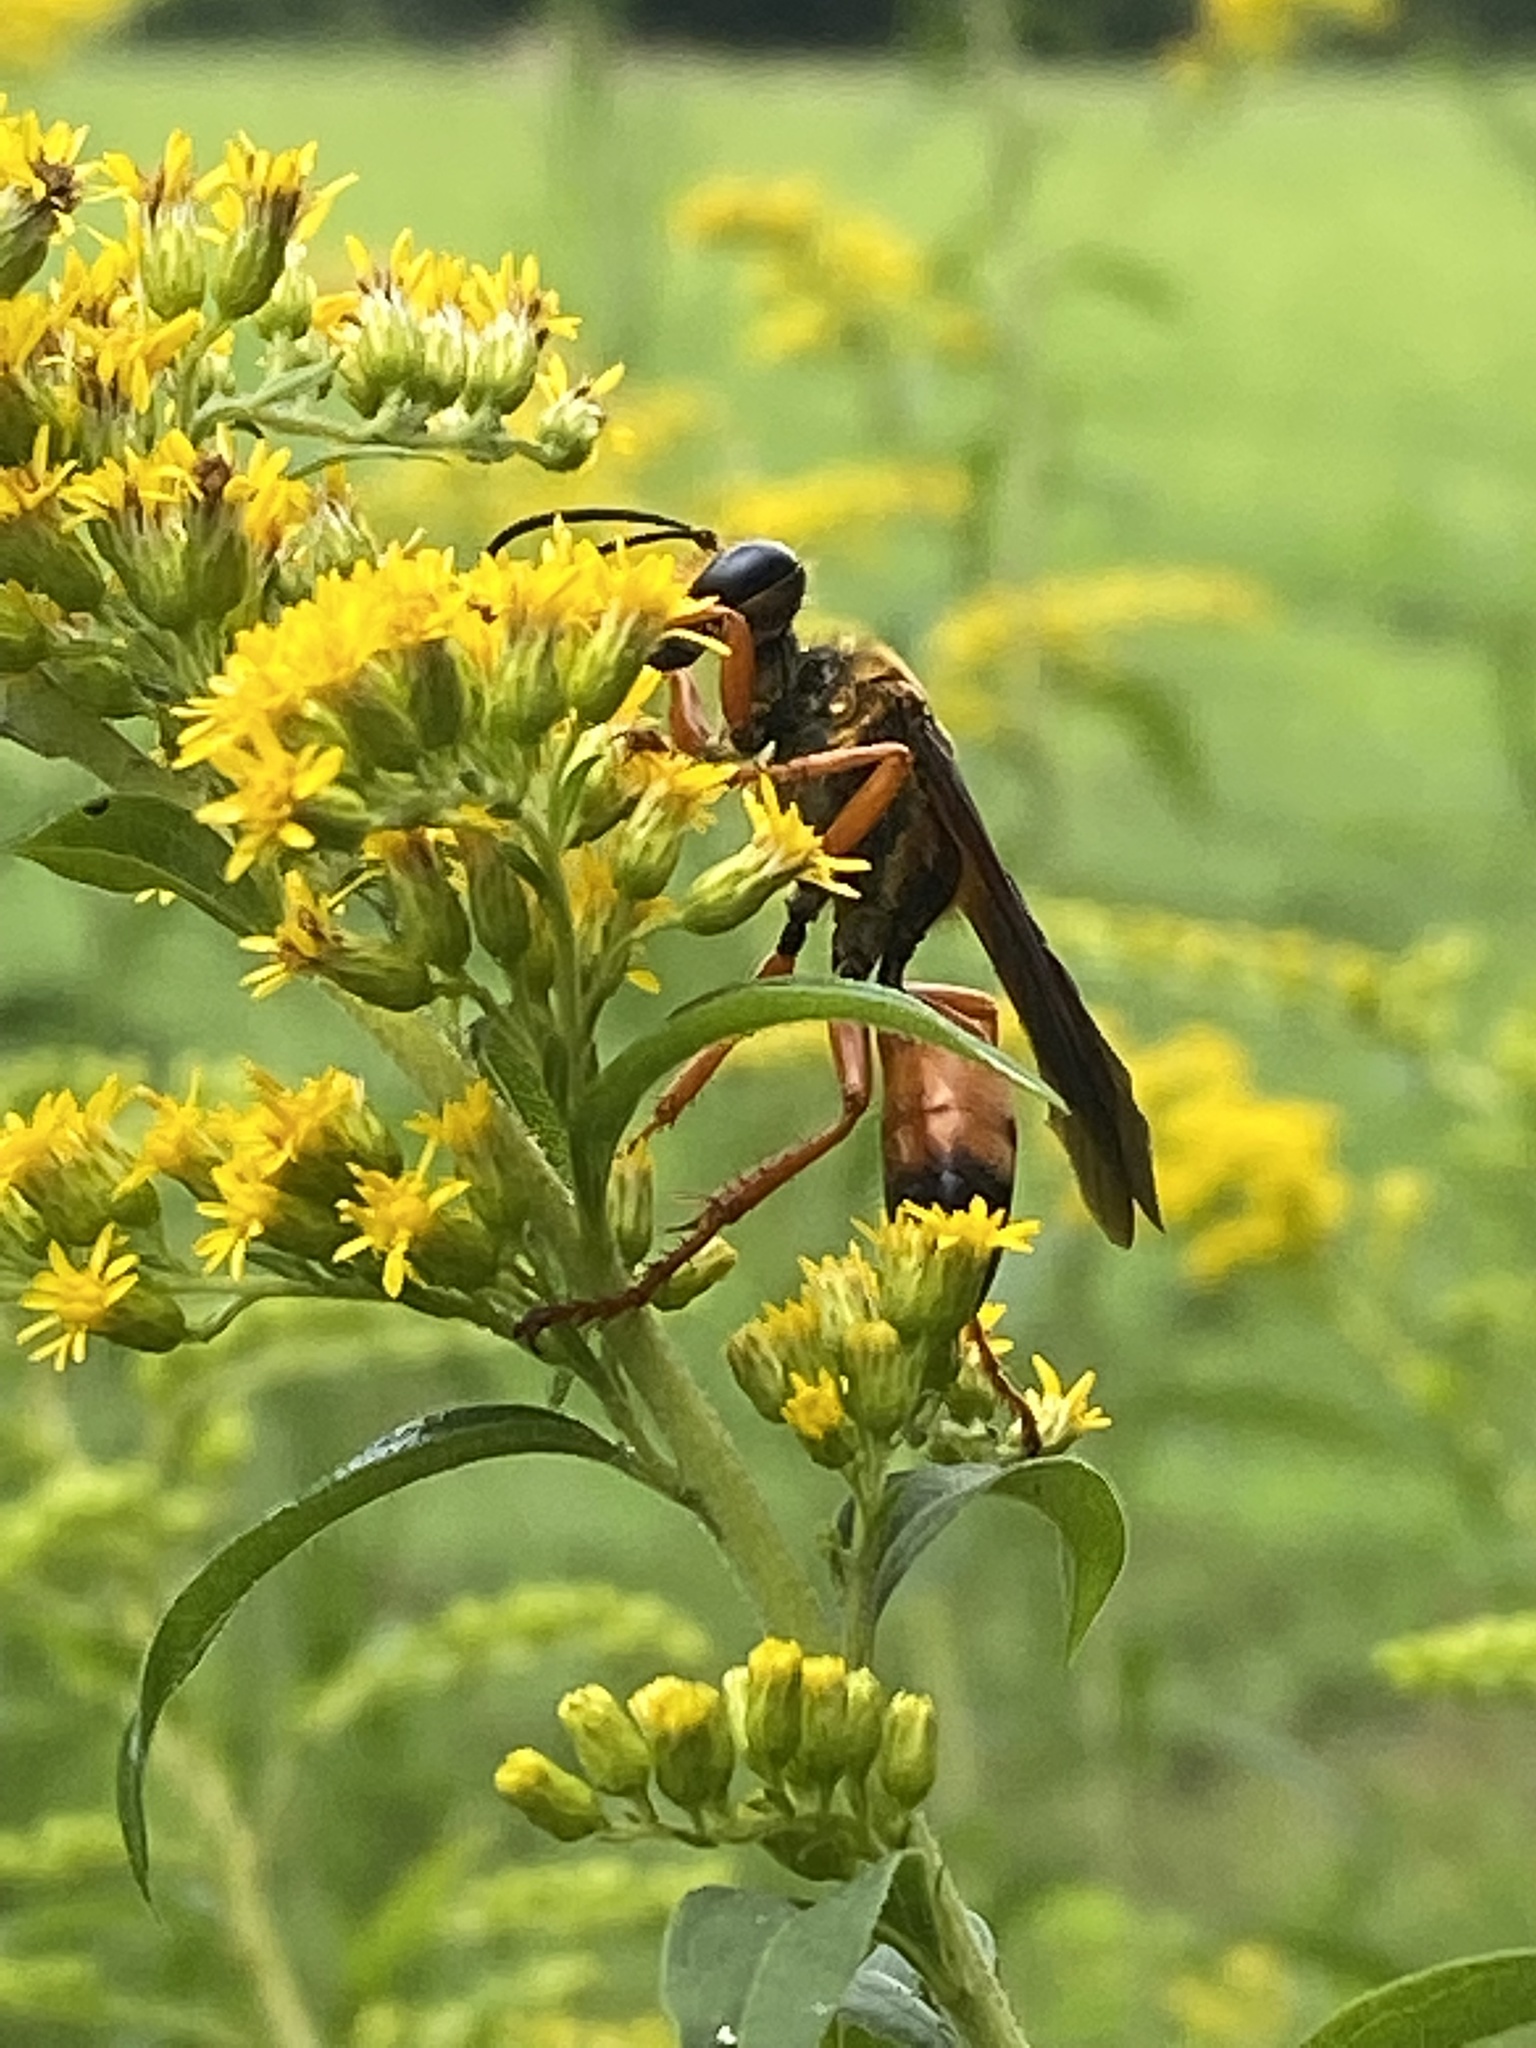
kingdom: Animalia
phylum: Arthropoda
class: Insecta
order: Hymenoptera
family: Sphecidae
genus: Sphex
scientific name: Sphex ichneumoneus
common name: Great golden digger wasp
